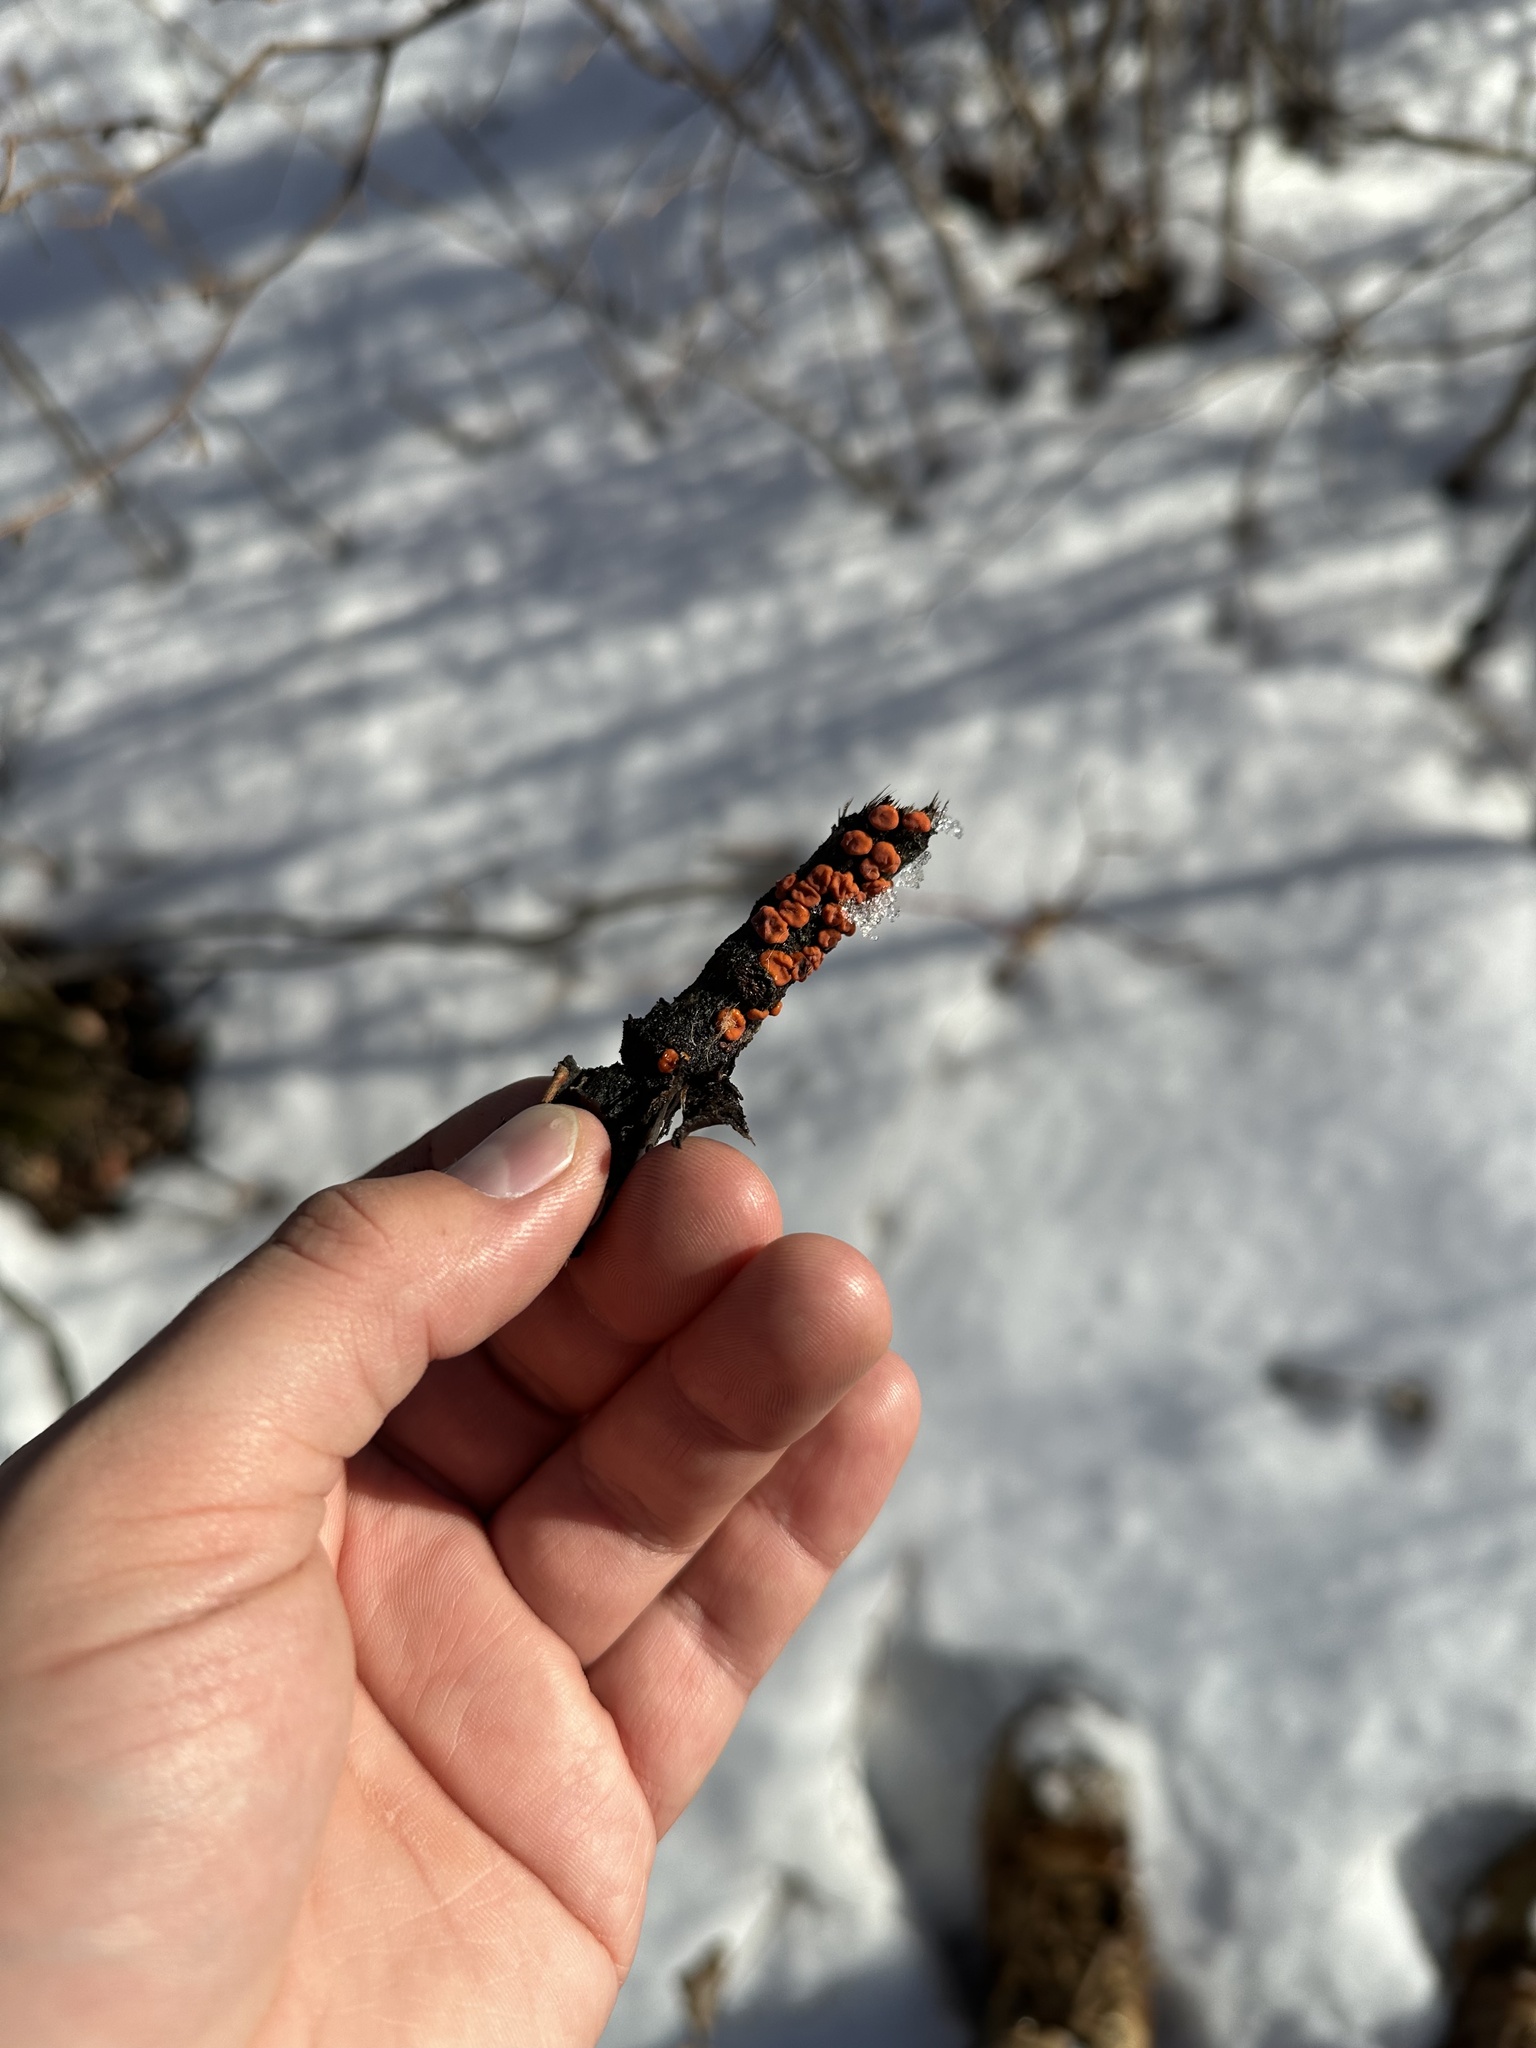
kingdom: Fungi
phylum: Basidiomycota
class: Agaricomycetes
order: Russulales
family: Peniophoraceae
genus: Peniophora
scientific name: Peniophora rufa
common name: Red tree brain fungus
